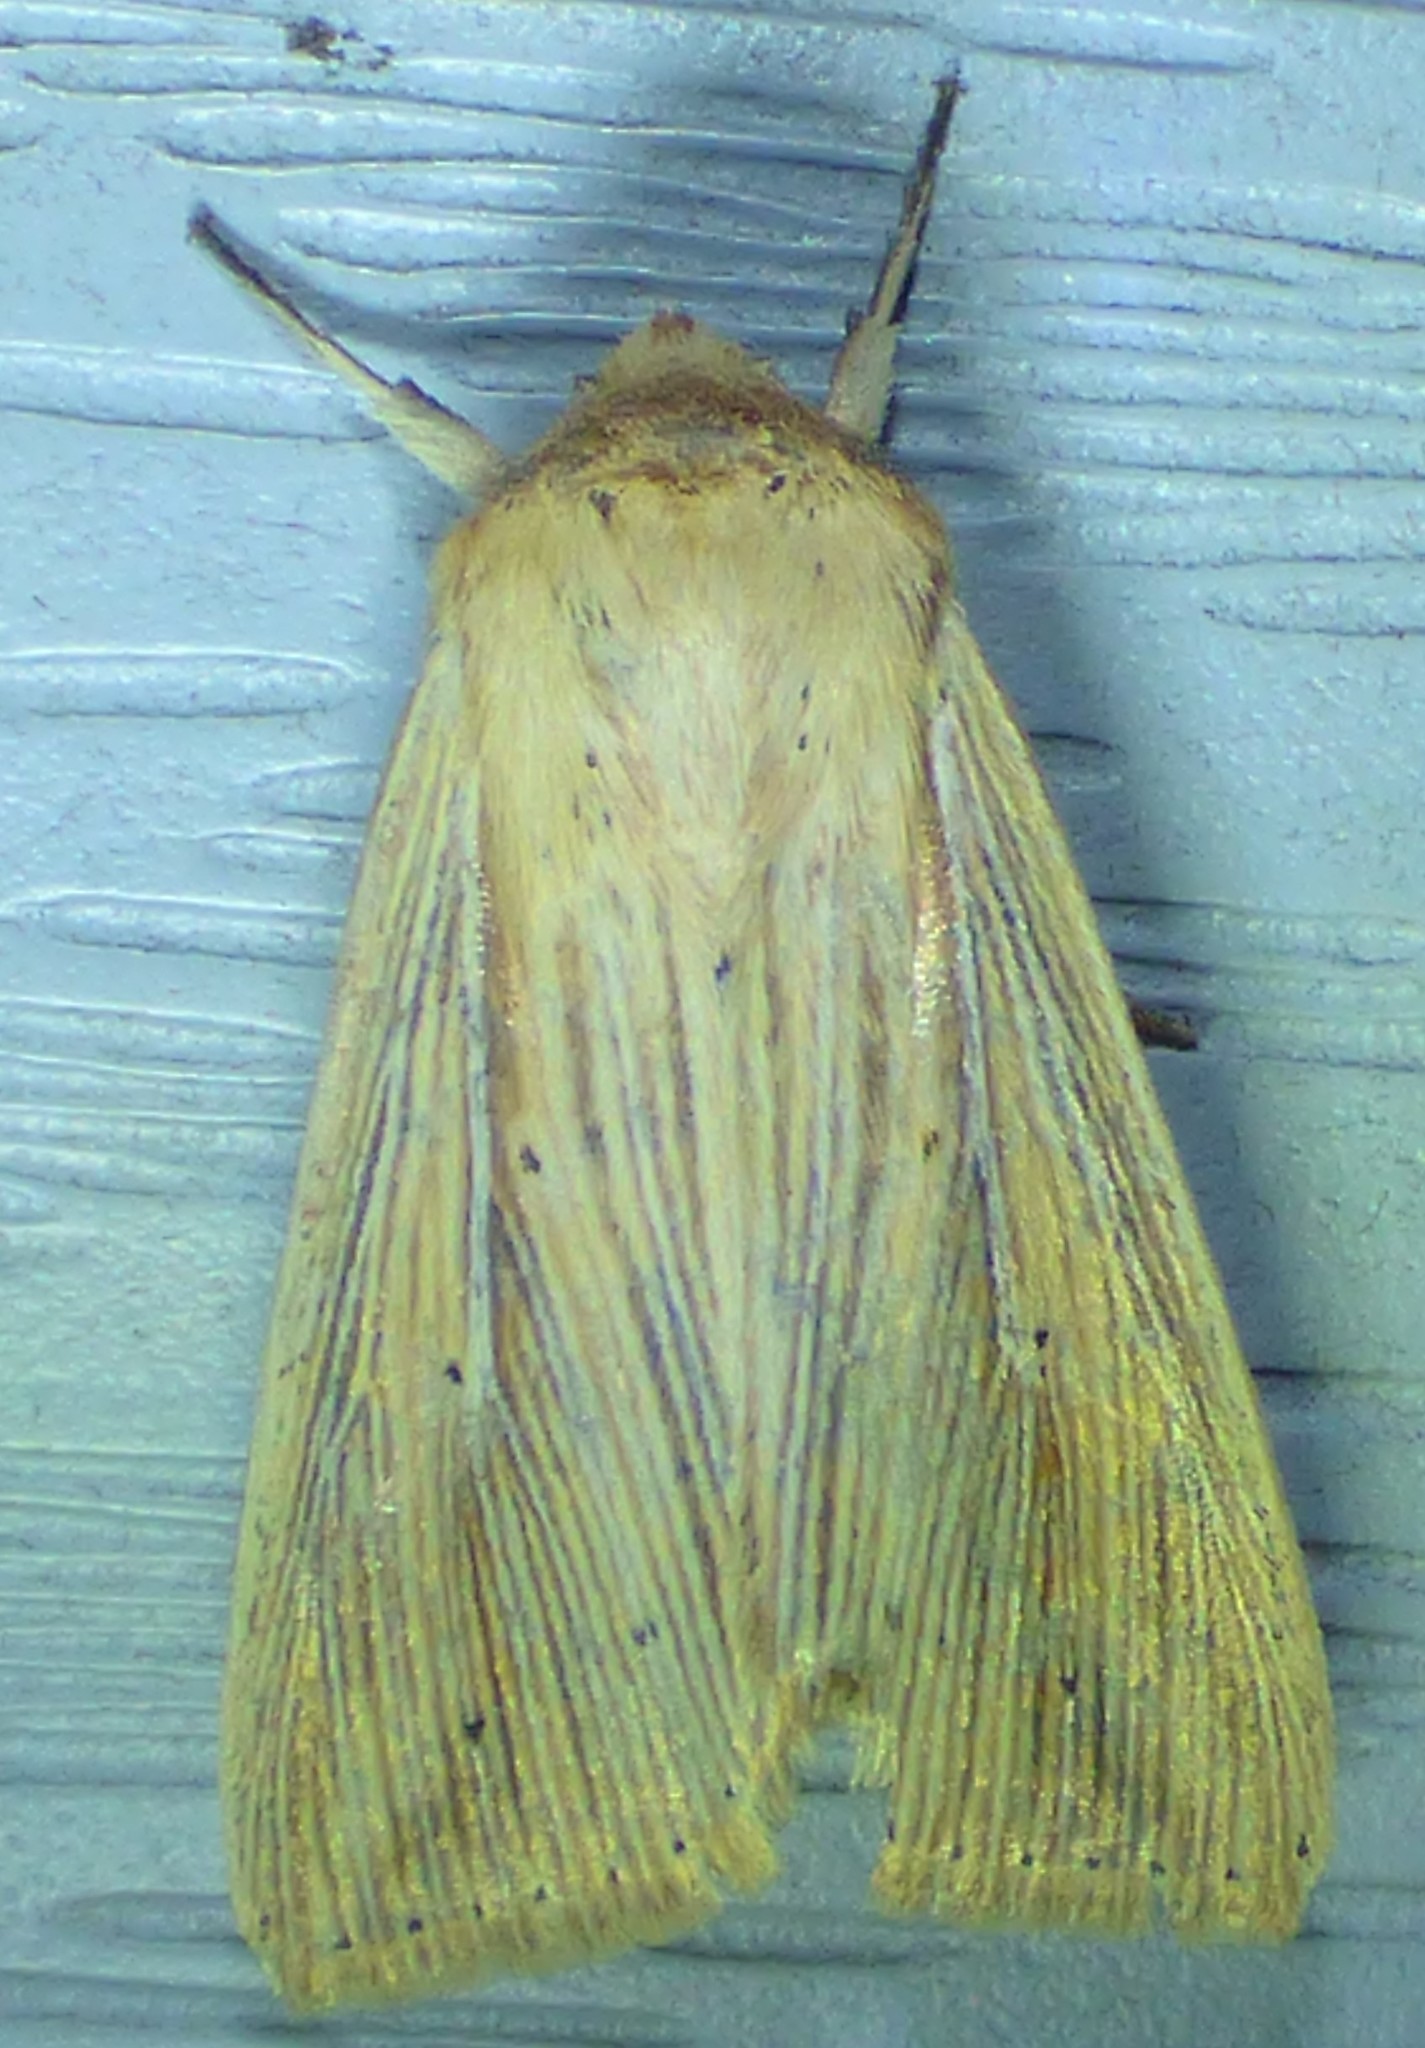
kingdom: Animalia
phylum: Arthropoda
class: Insecta
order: Lepidoptera
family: Noctuidae
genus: Leucania
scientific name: Leucania adjuta
